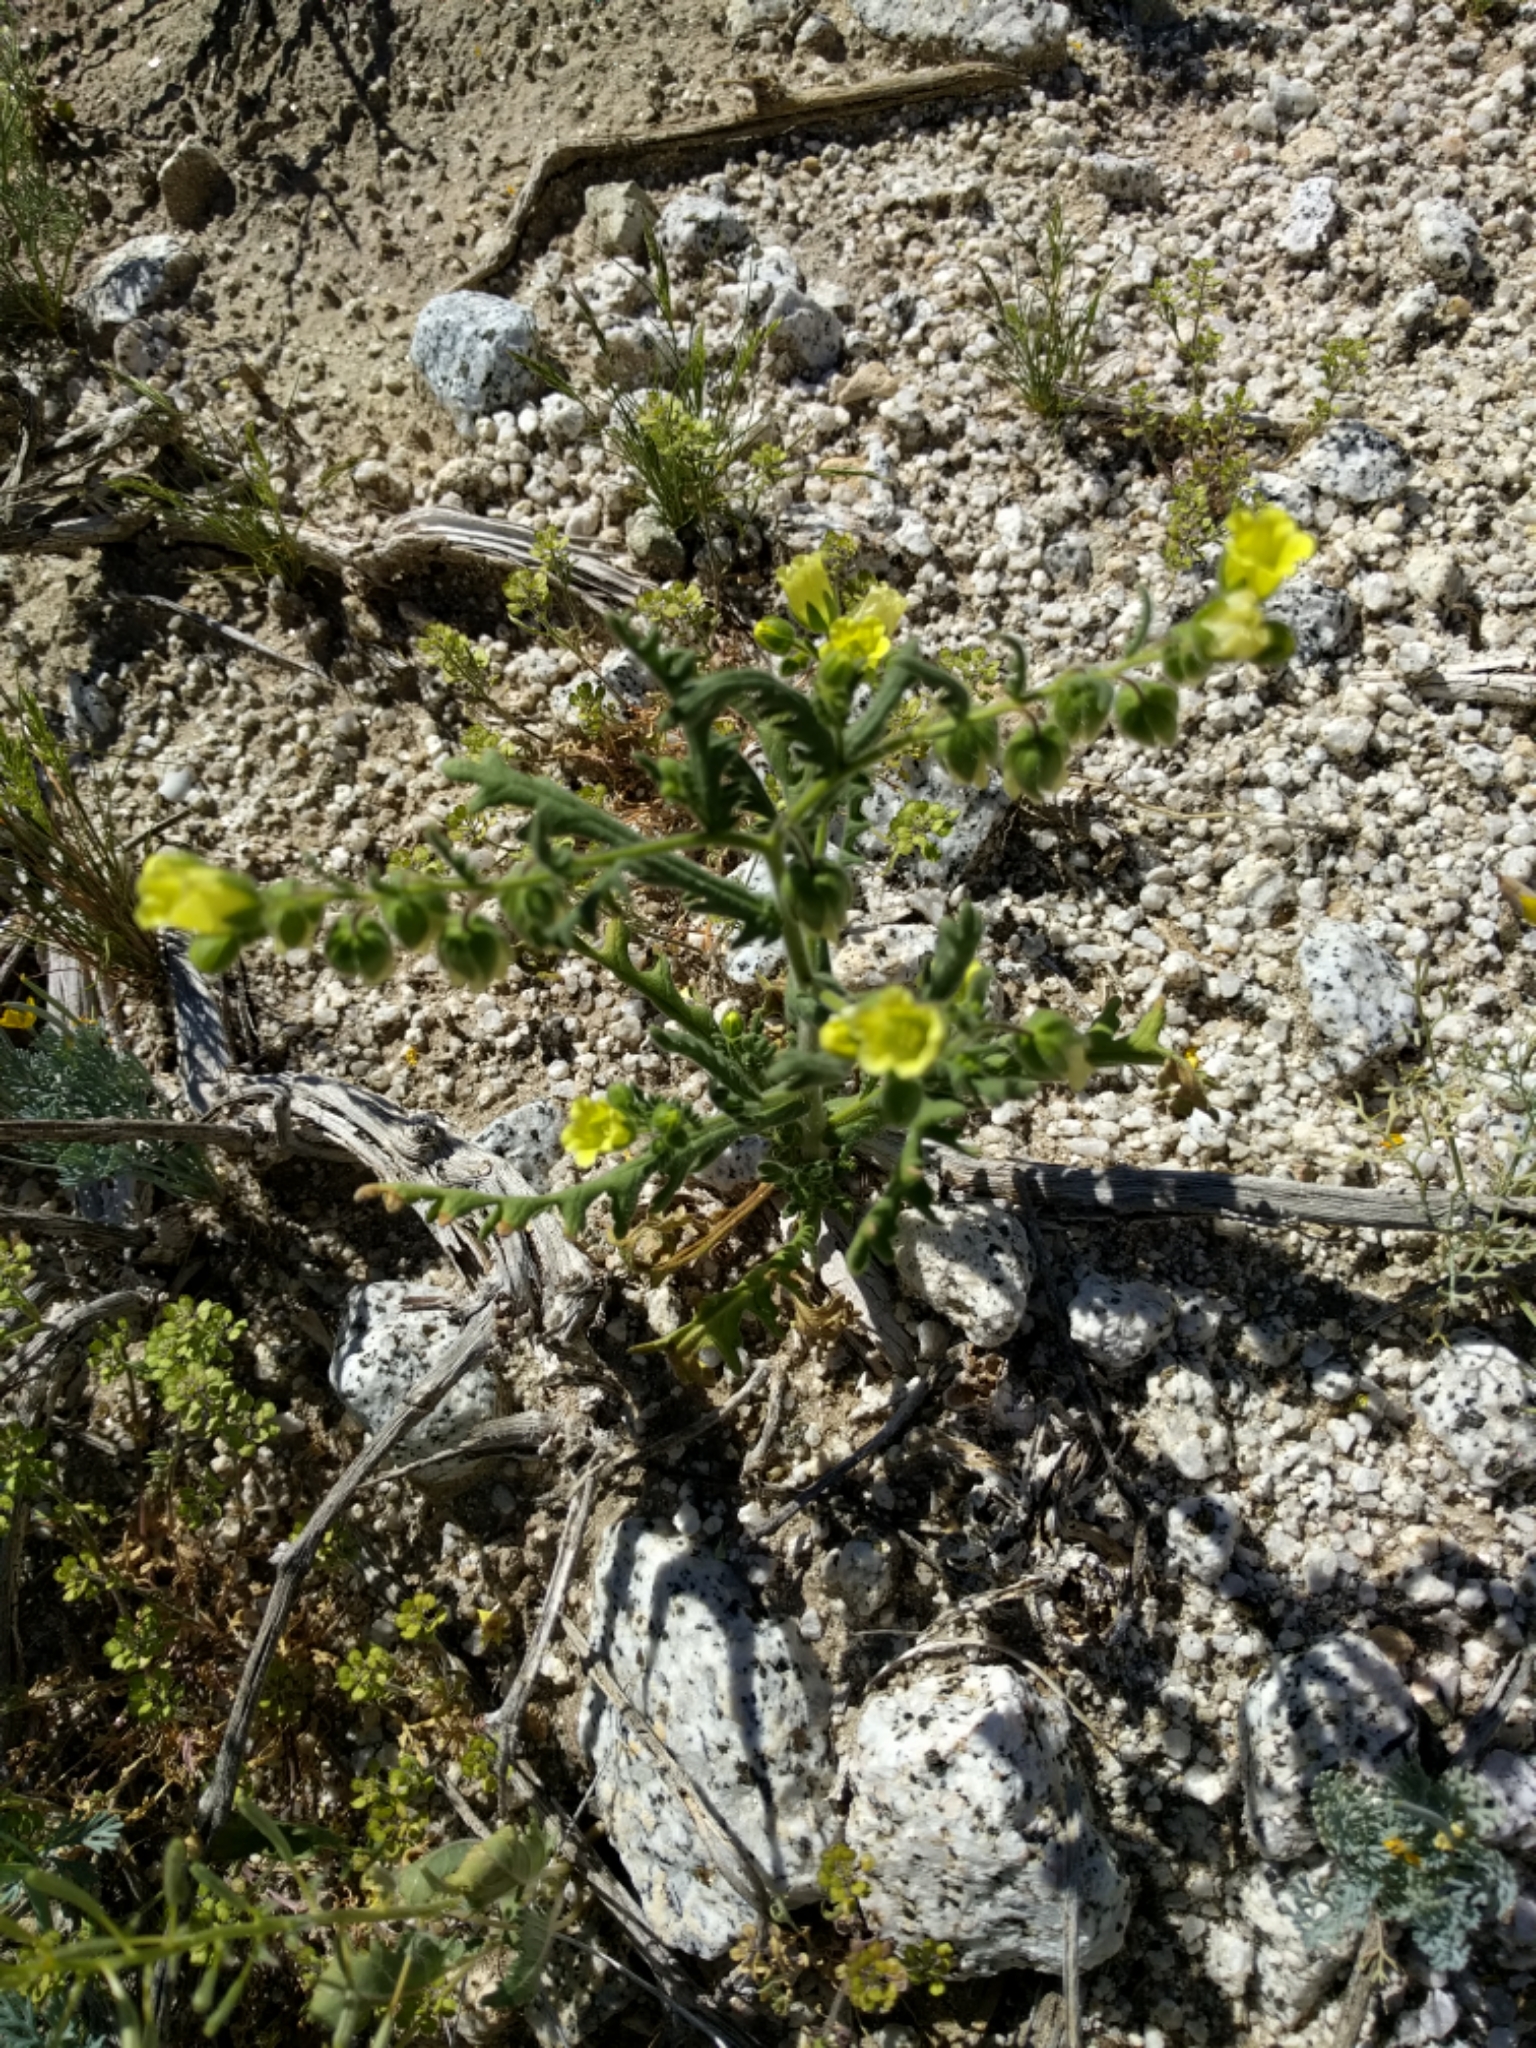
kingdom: Plantae
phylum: Tracheophyta
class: Magnoliopsida
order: Boraginales
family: Hydrophyllaceae
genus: Emmenanthe
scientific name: Emmenanthe penduliflora
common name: Whispering-bells
